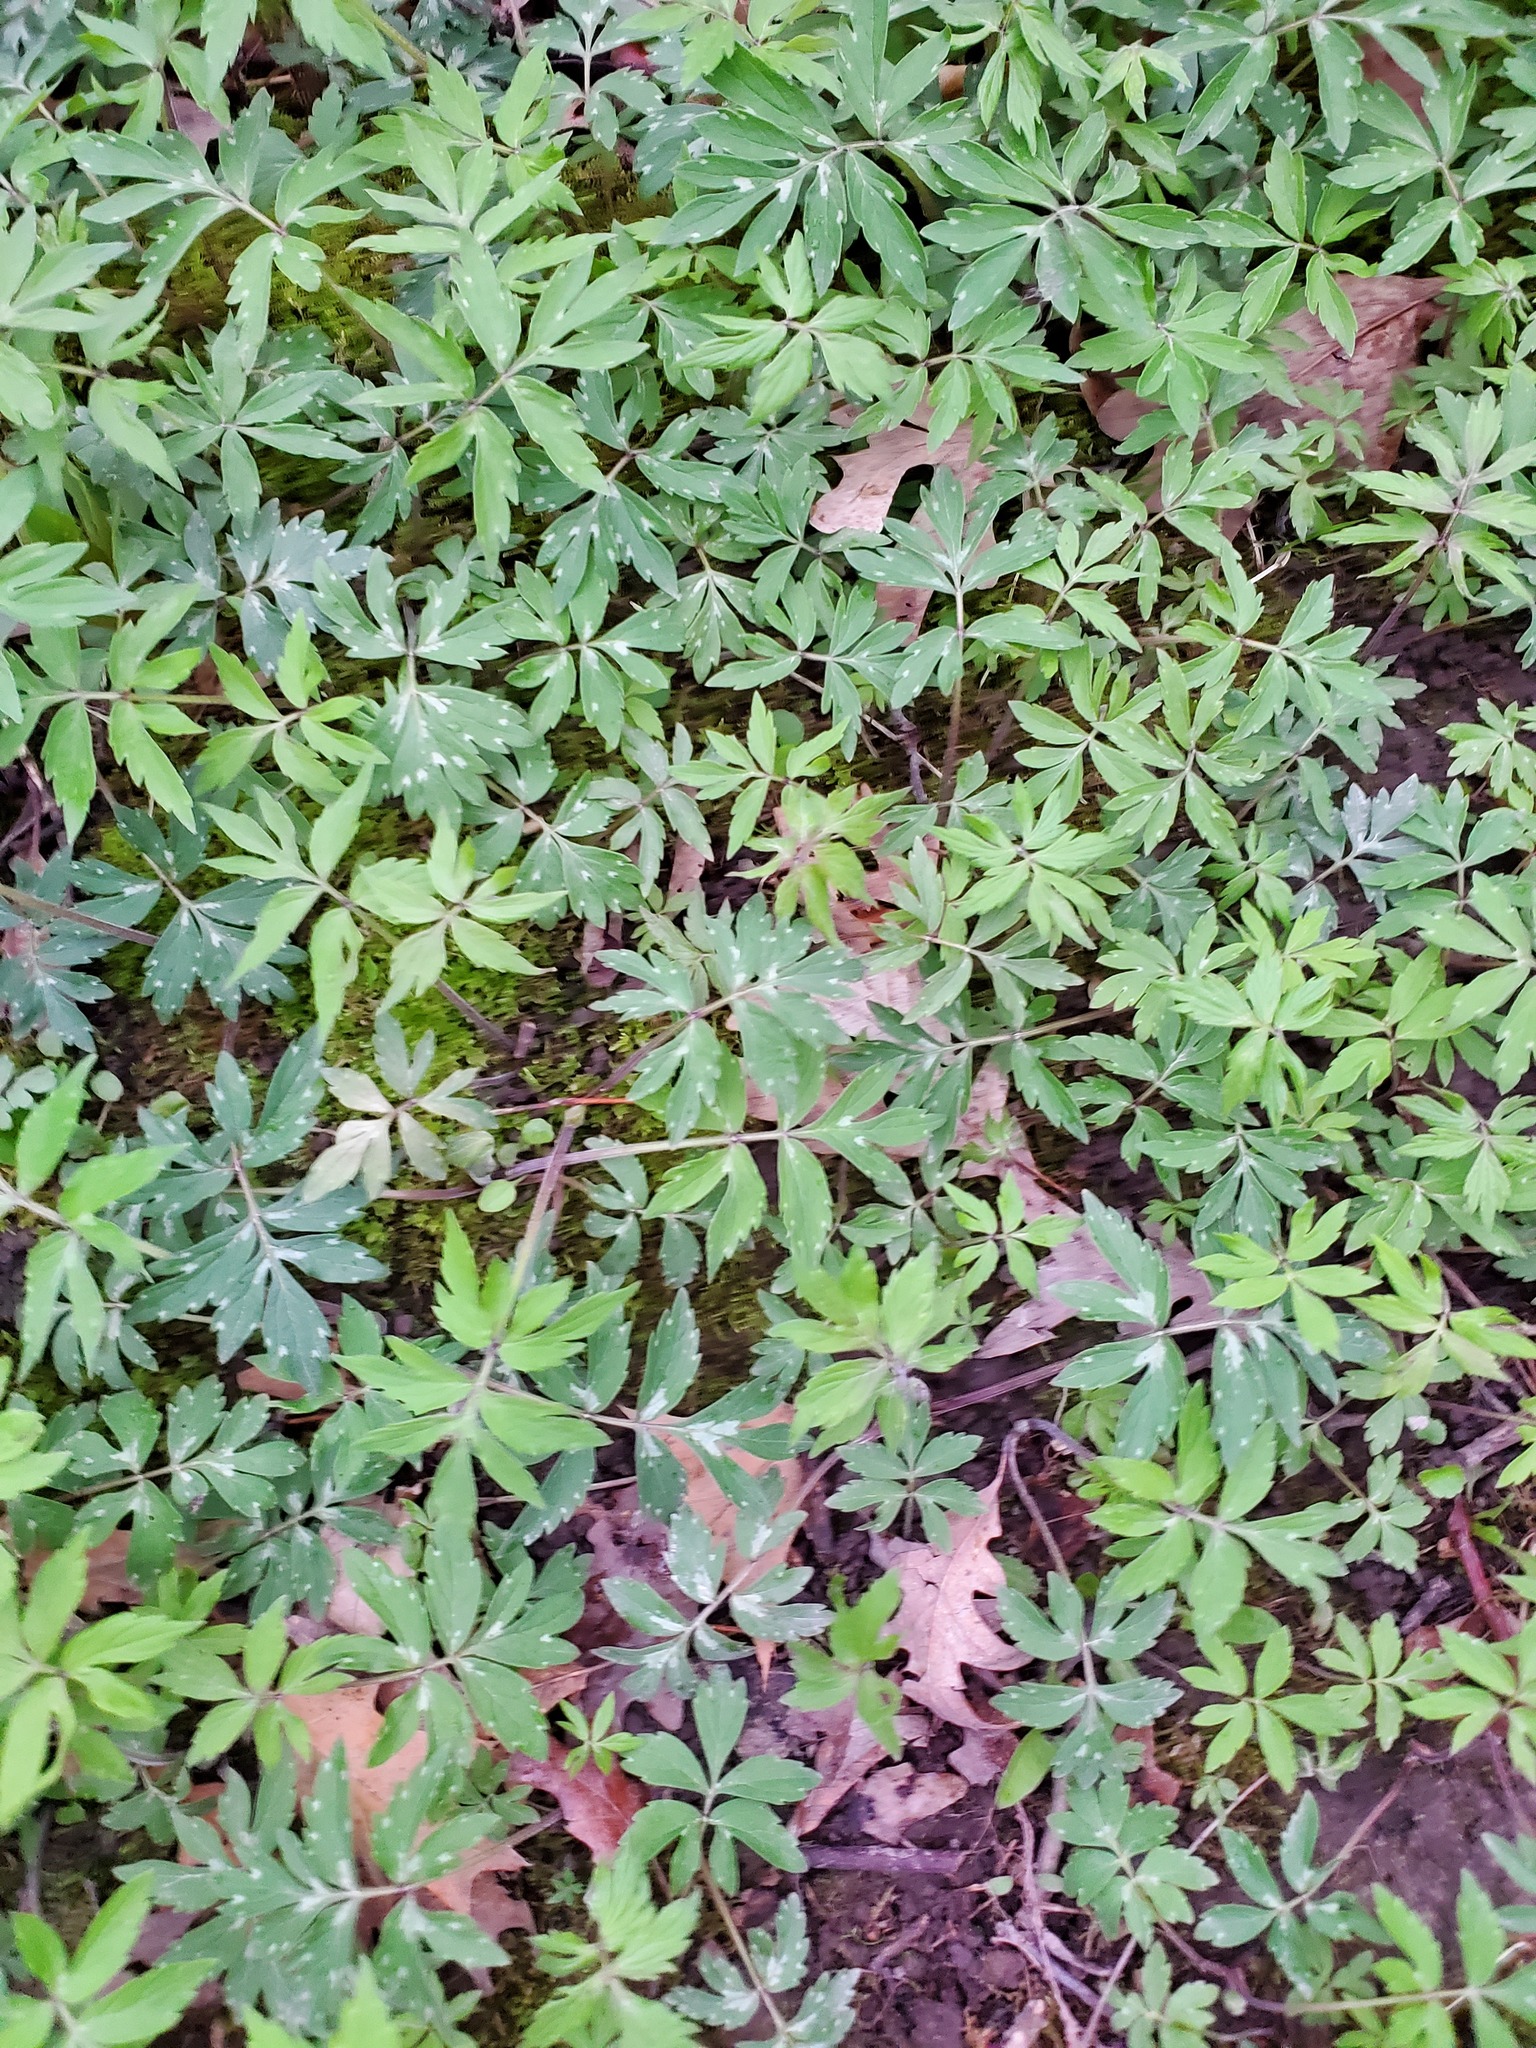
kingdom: Plantae
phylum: Tracheophyta
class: Magnoliopsida
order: Boraginales
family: Hydrophyllaceae
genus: Hydrophyllum
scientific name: Hydrophyllum virginianum
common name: Virginia waterleaf
